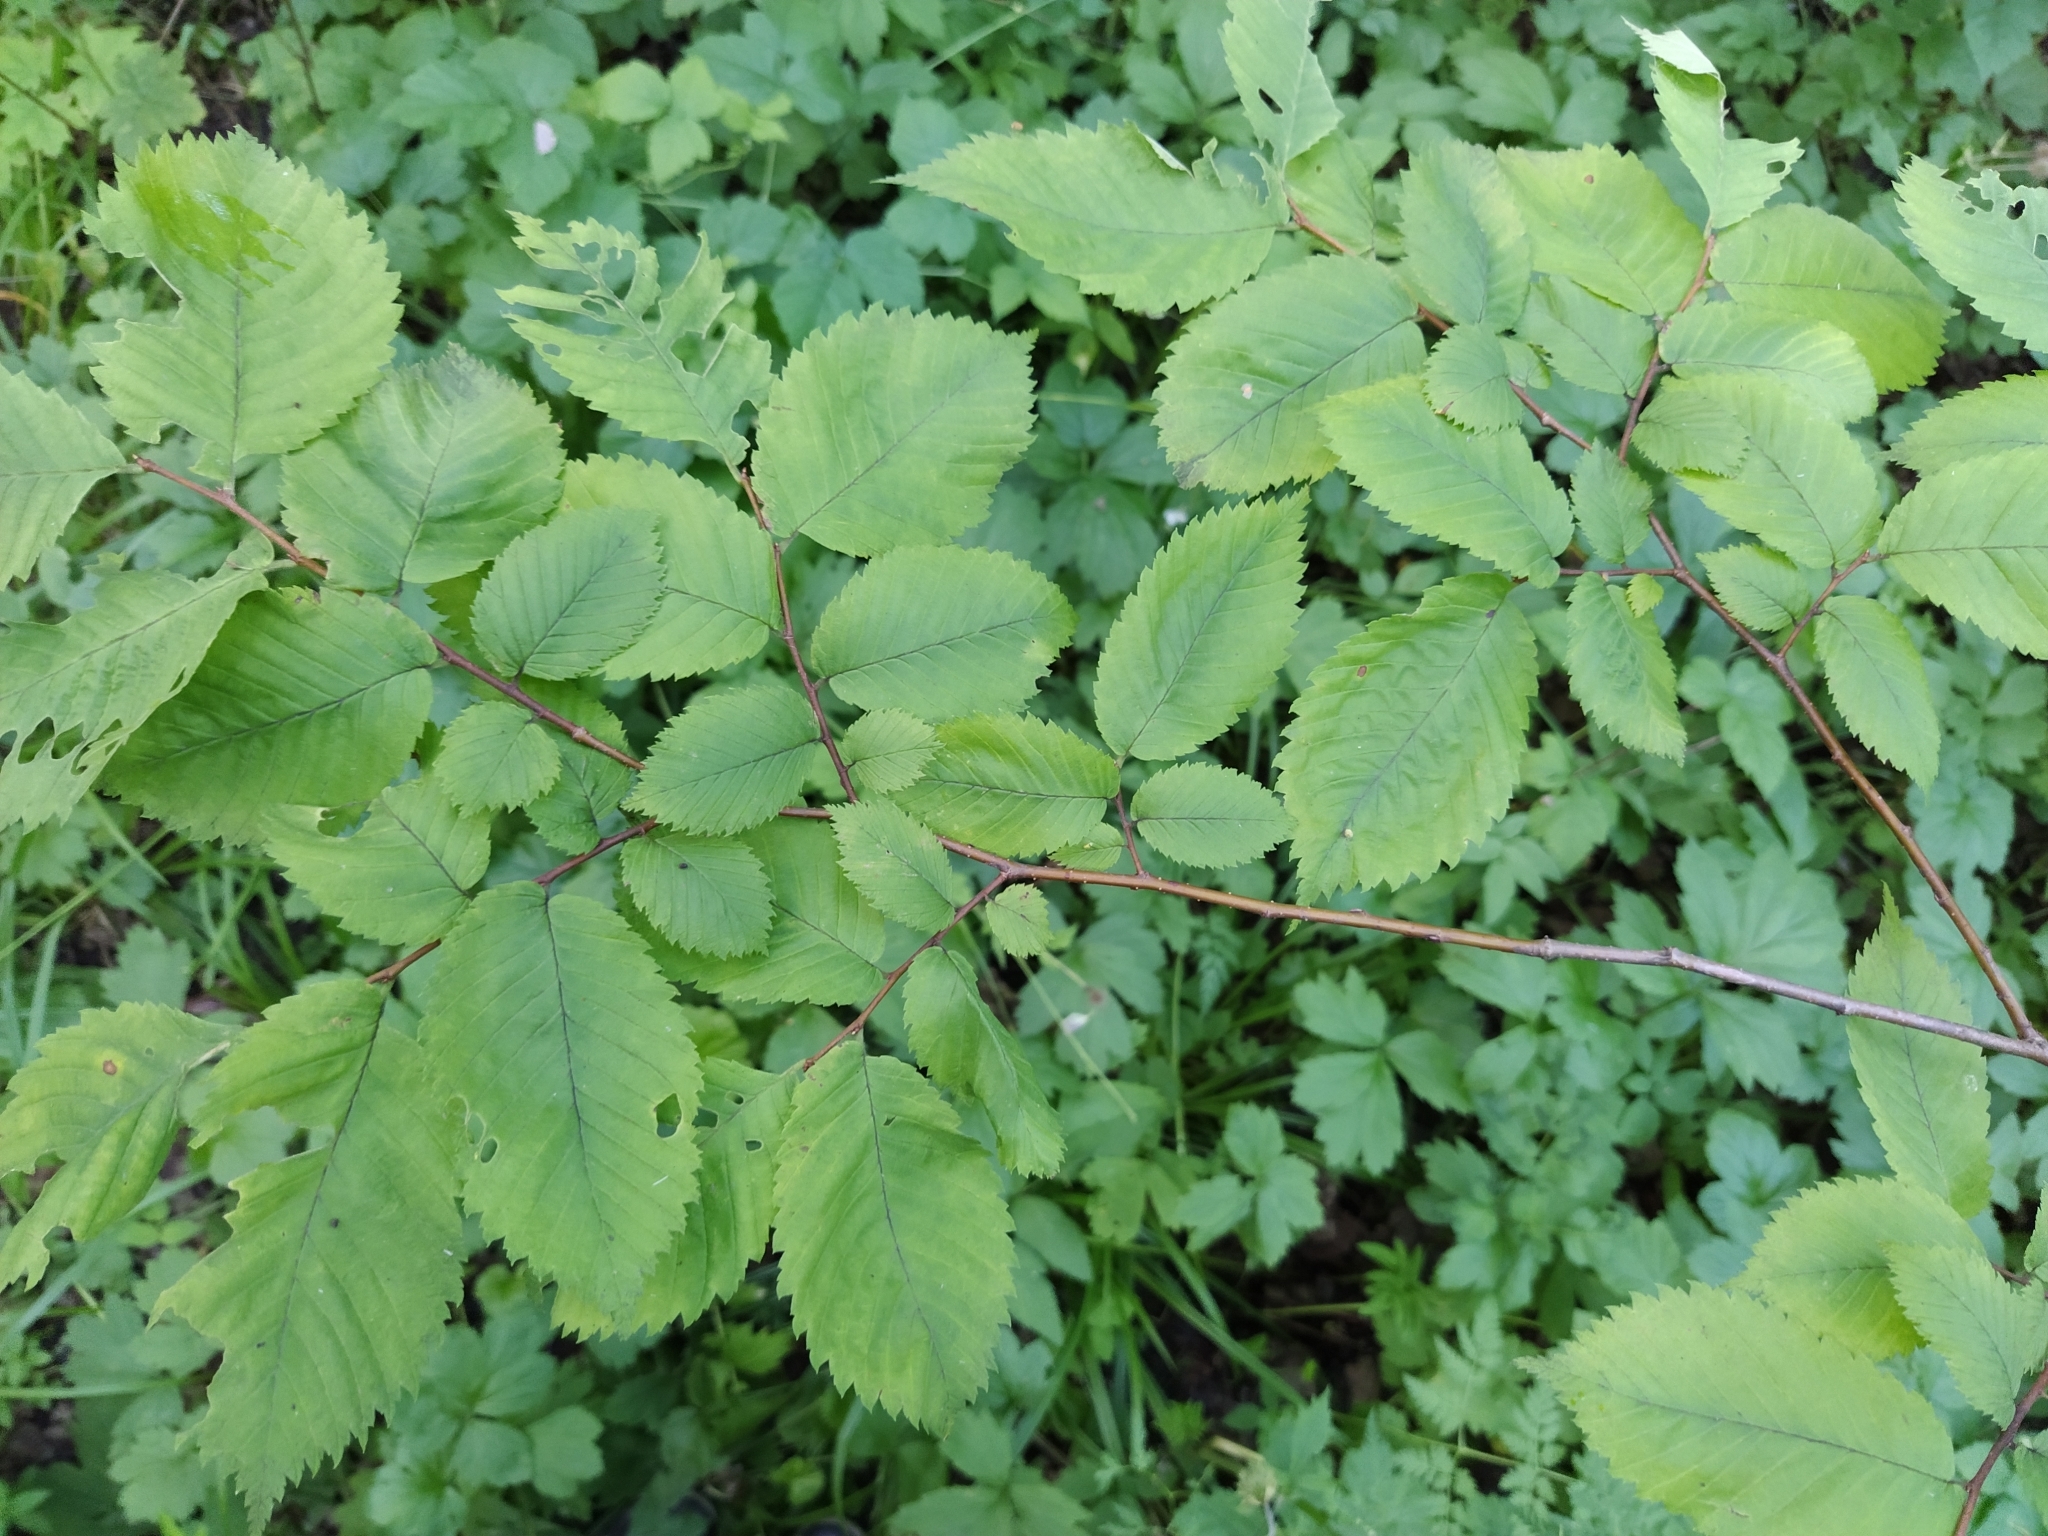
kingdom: Plantae
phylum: Tracheophyta
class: Magnoliopsida
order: Rosales
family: Ulmaceae
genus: Ulmus
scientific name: Ulmus laevis
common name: European white-elm
